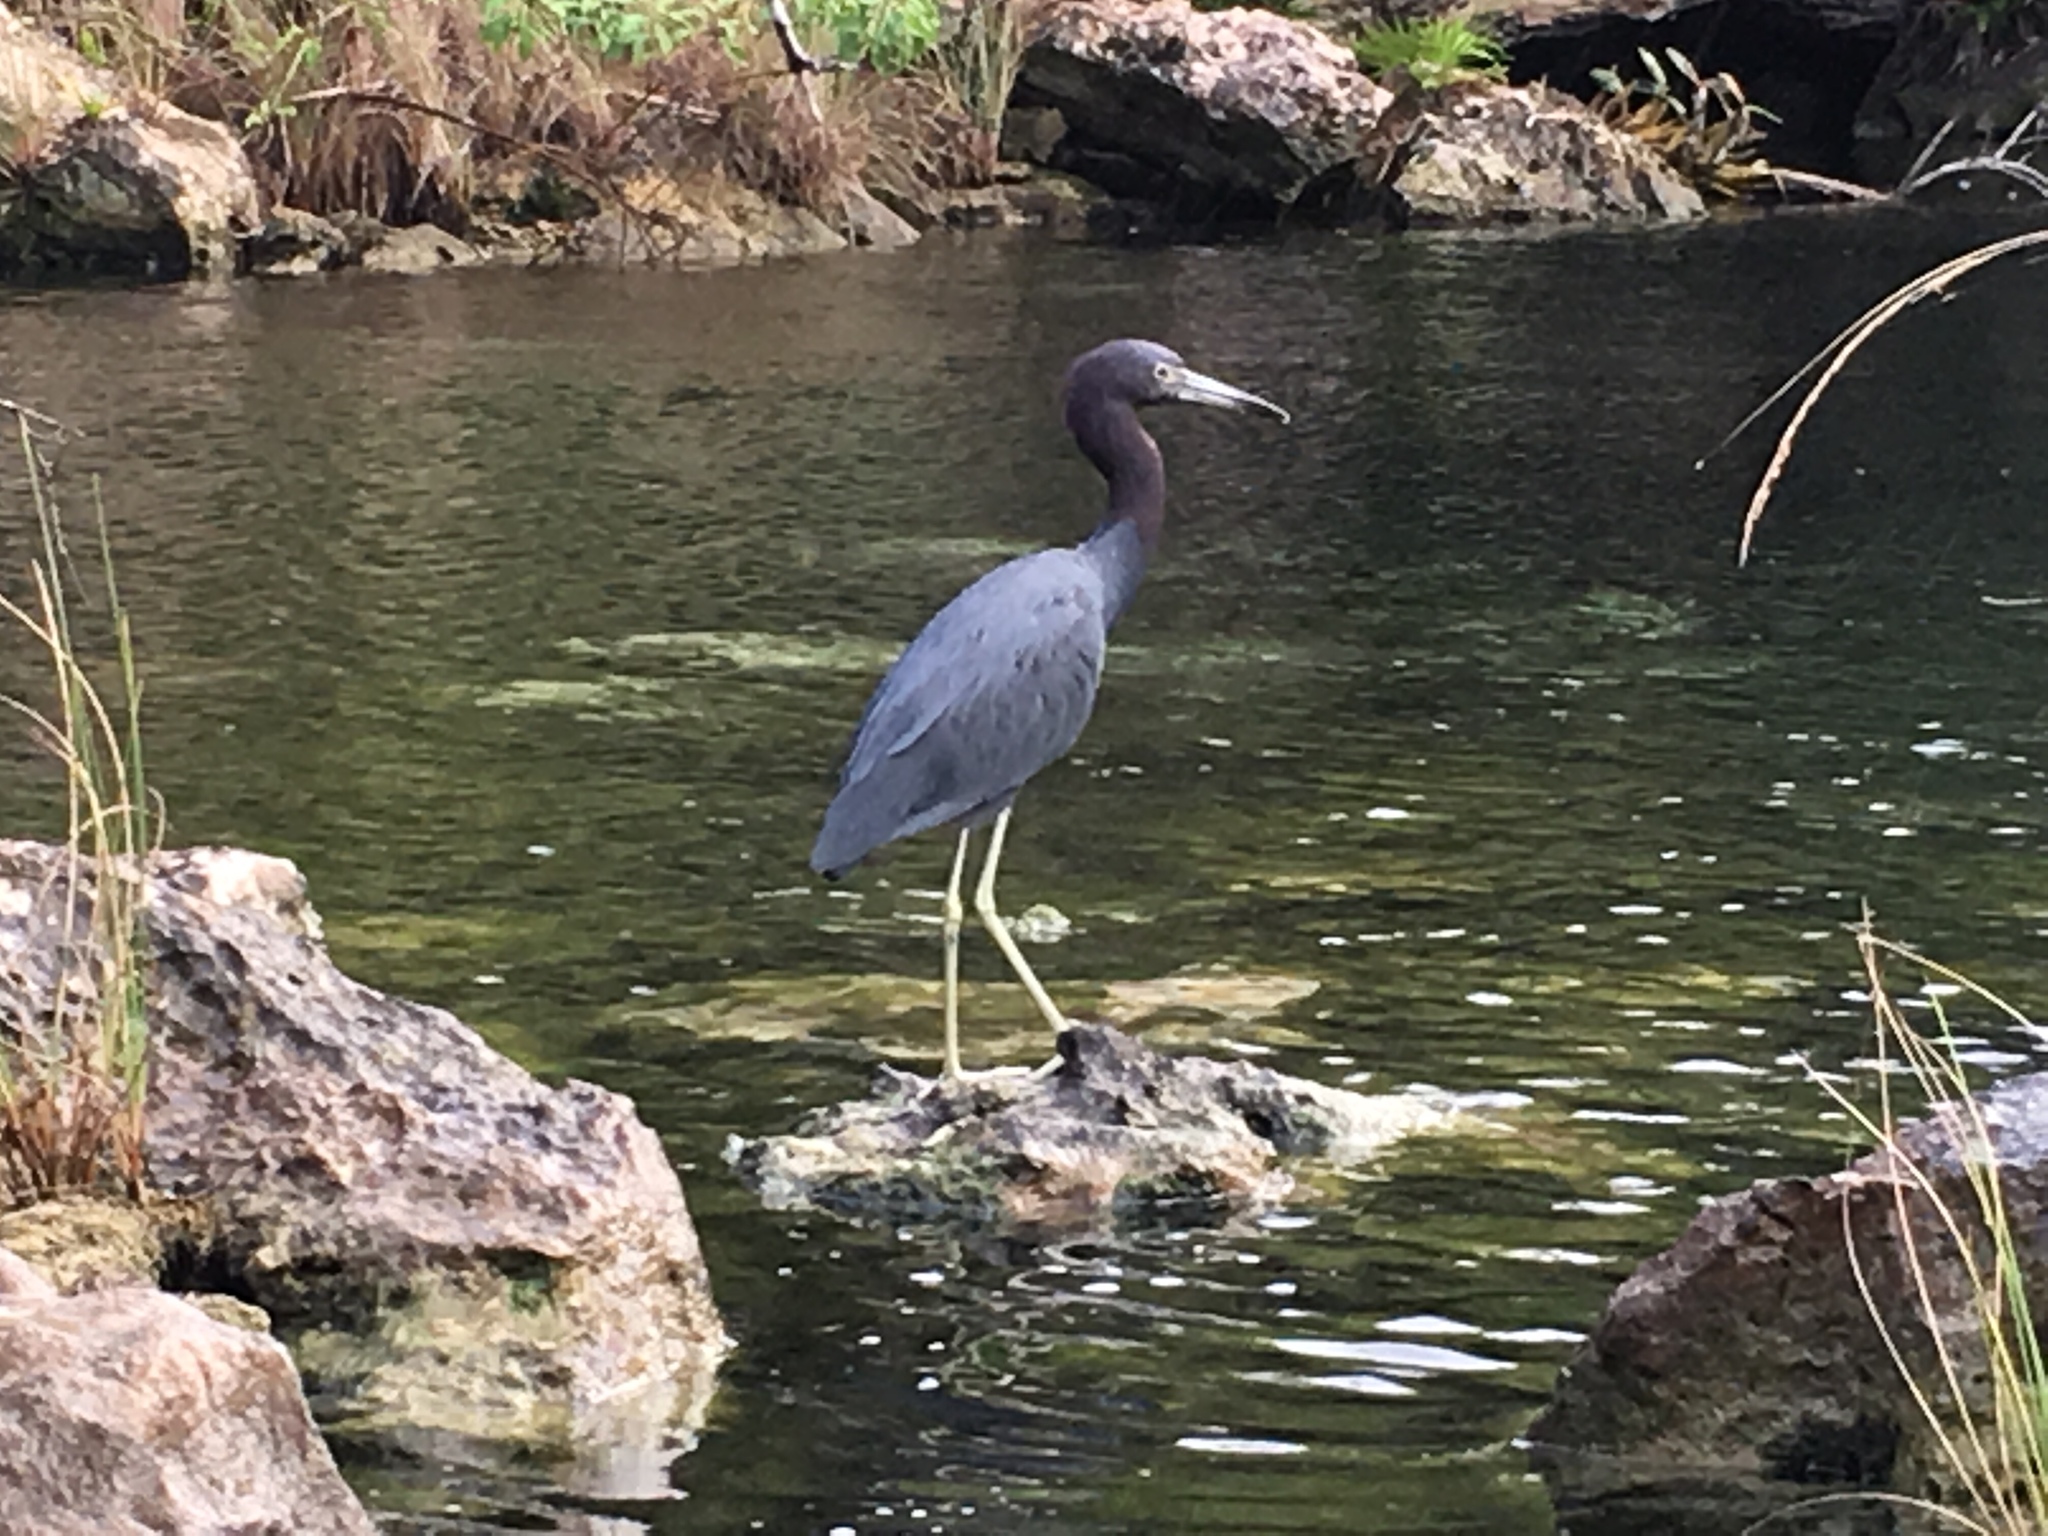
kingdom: Animalia
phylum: Chordata
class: Aves
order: Pelecaniformes
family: Ardeidae
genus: Egretta
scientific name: Egretta caerulea
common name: Little blue heron
